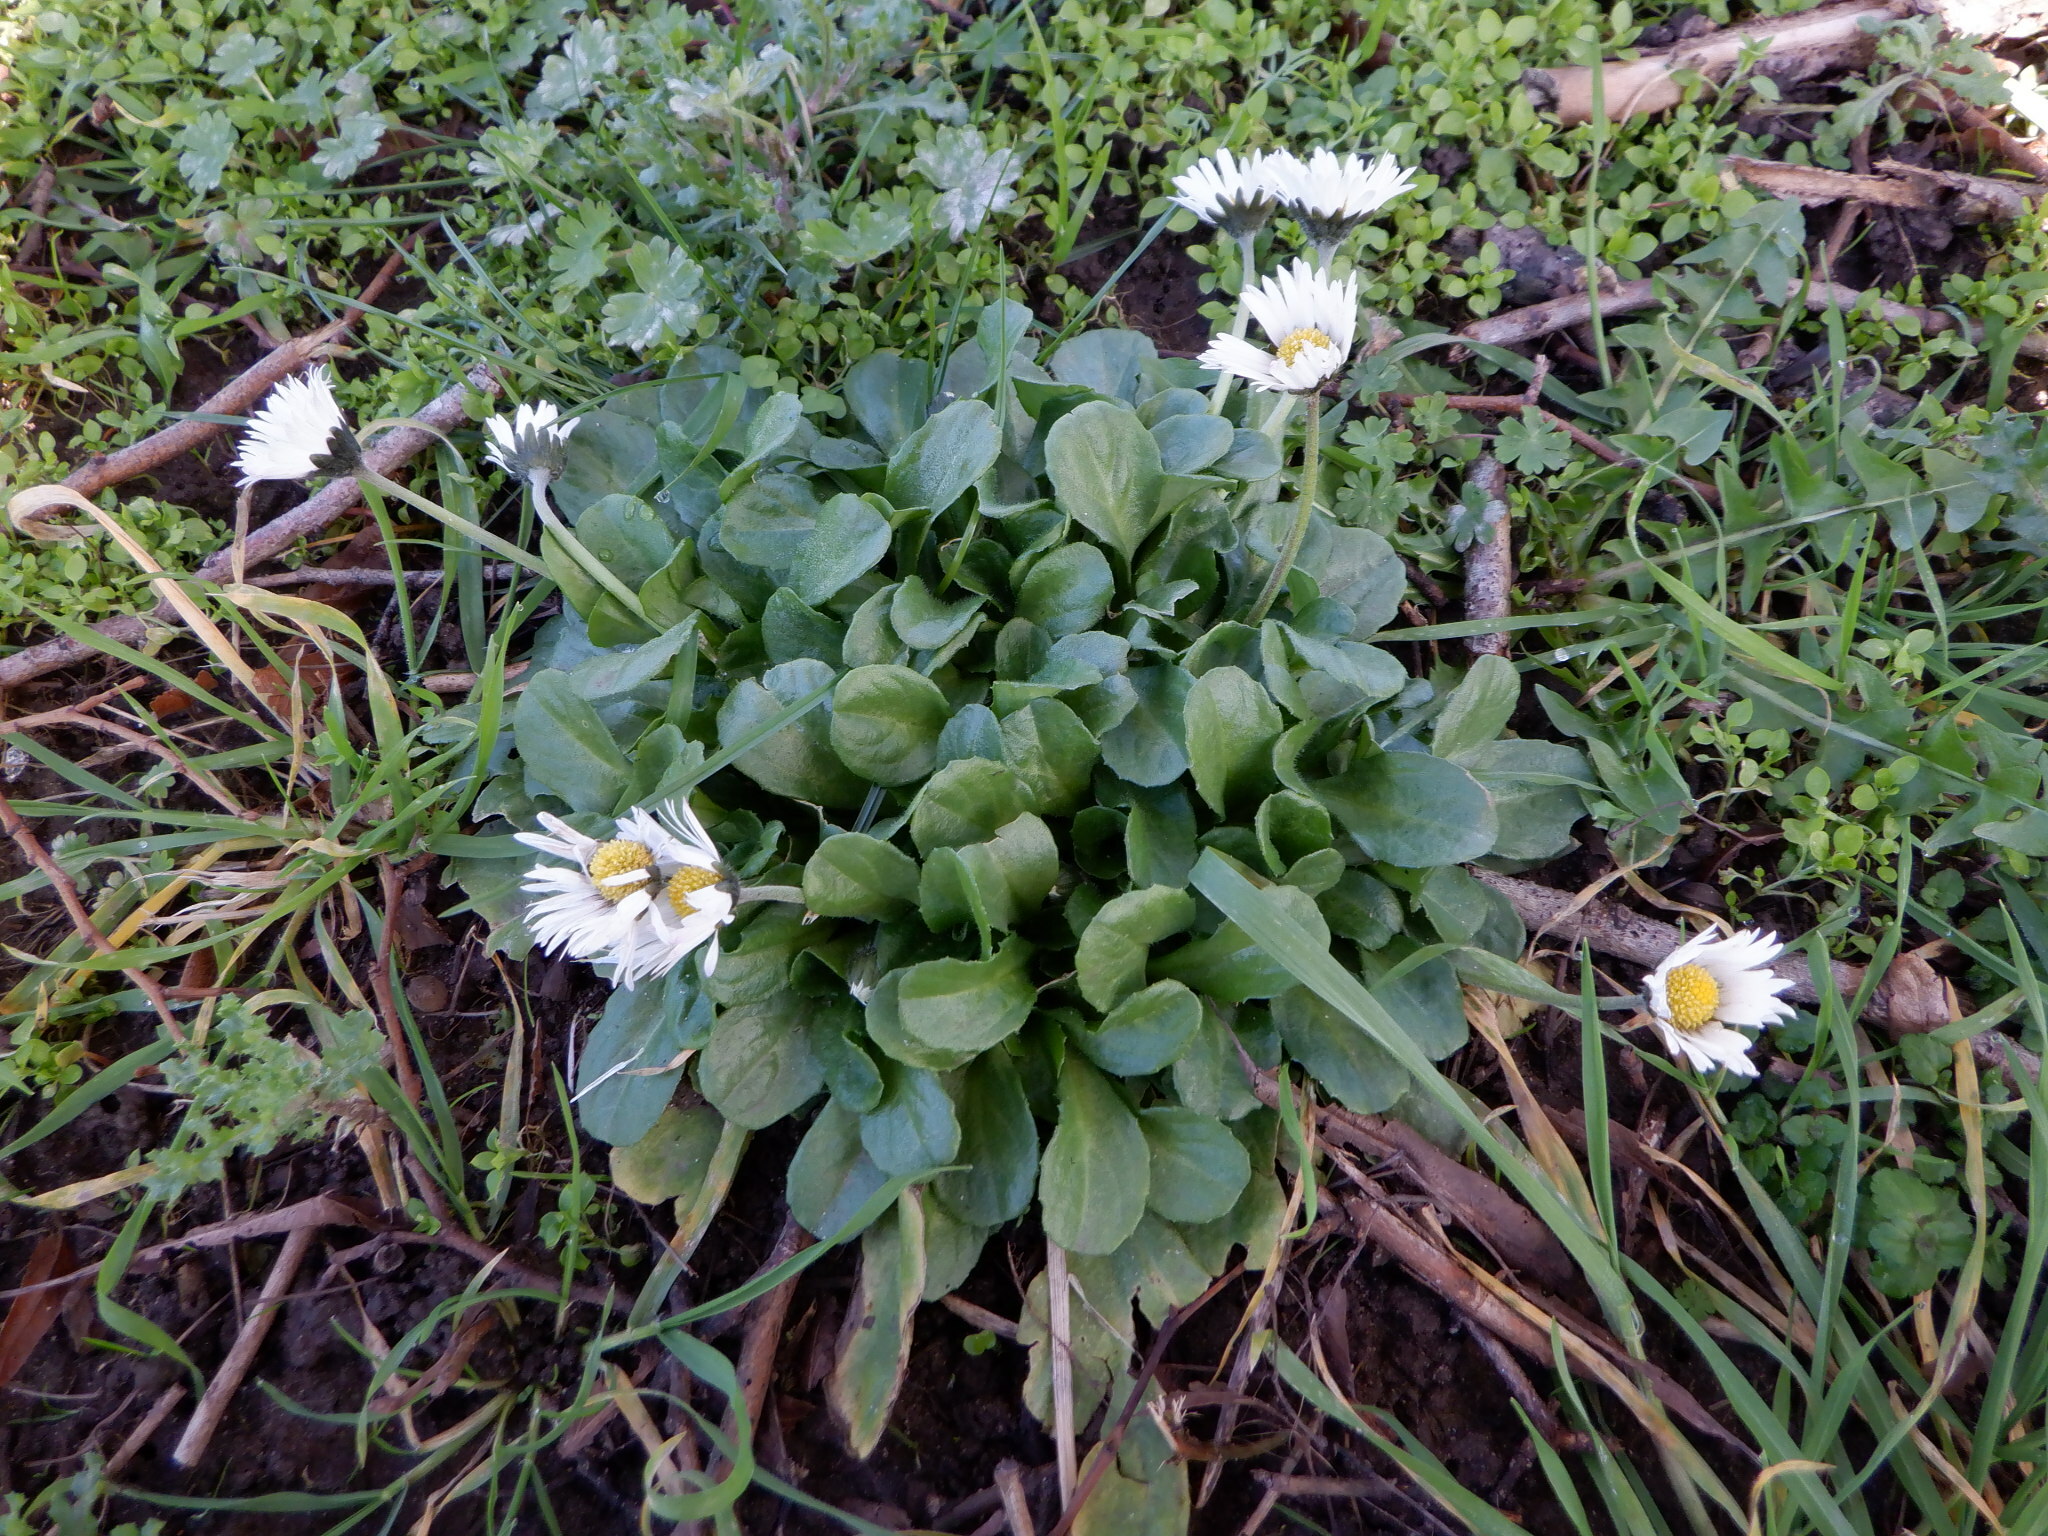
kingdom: Plantae
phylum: Tracheophyta
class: Magnoliopsida
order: Asterales
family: Asteraceae
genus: Bellis
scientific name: Bellis perennis
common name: Lawndaisy
